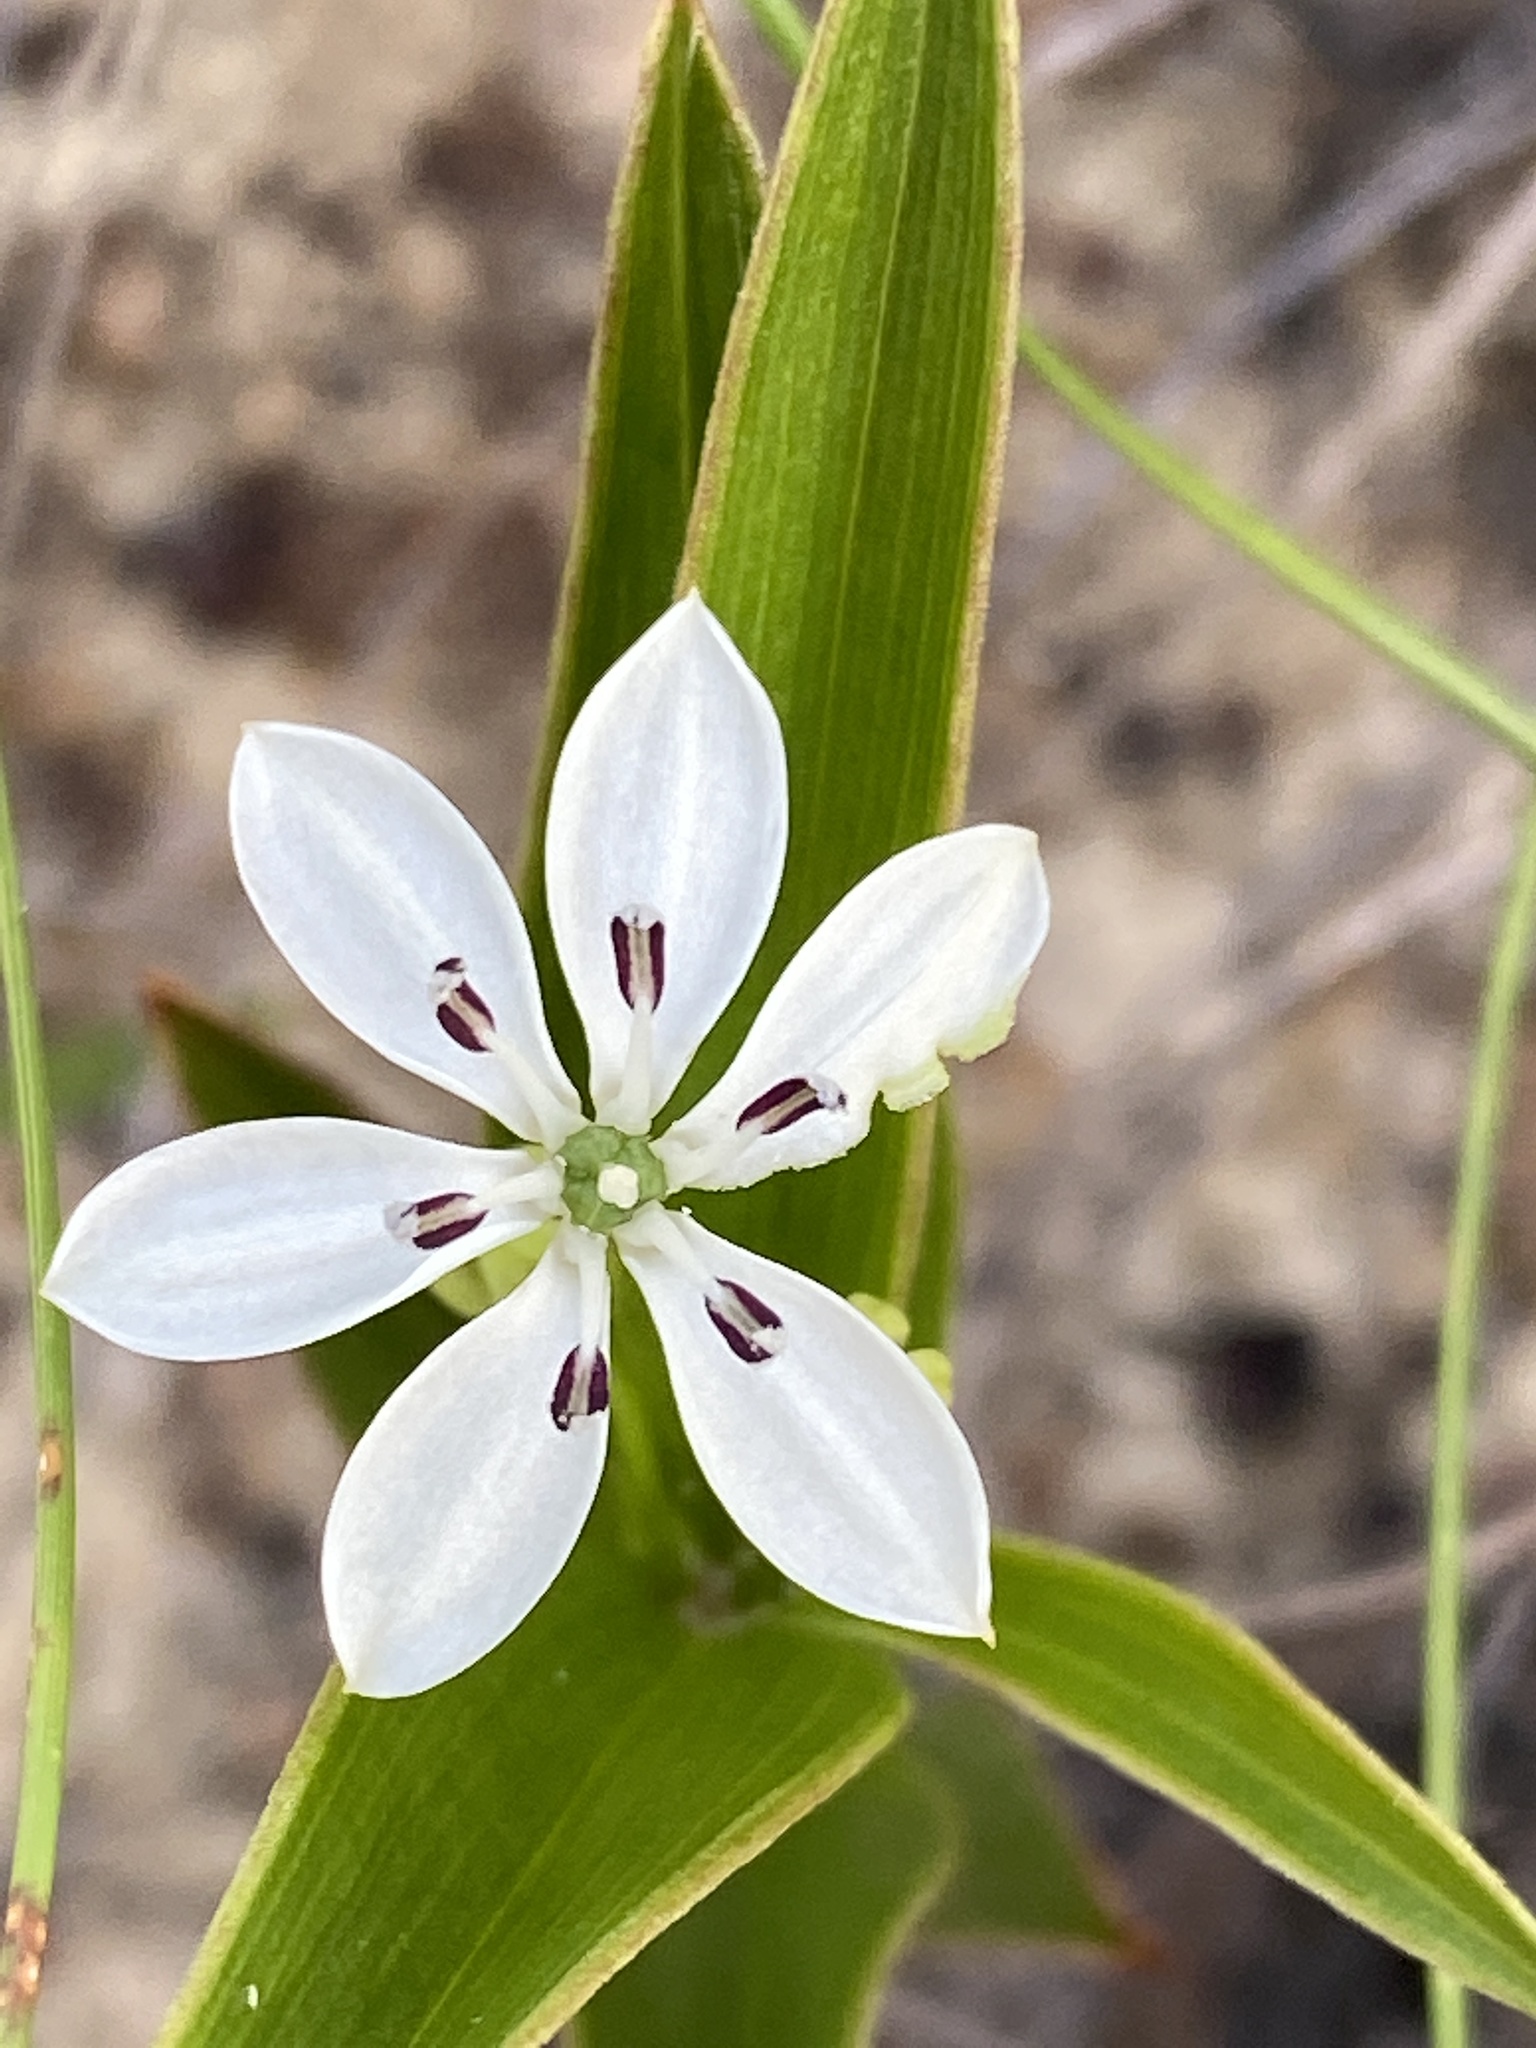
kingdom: Plantae
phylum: Tracheophyta
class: Liliopsida
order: Liliales
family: Colchicaceae
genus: Schelhammera
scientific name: Schelhammera multiflora
